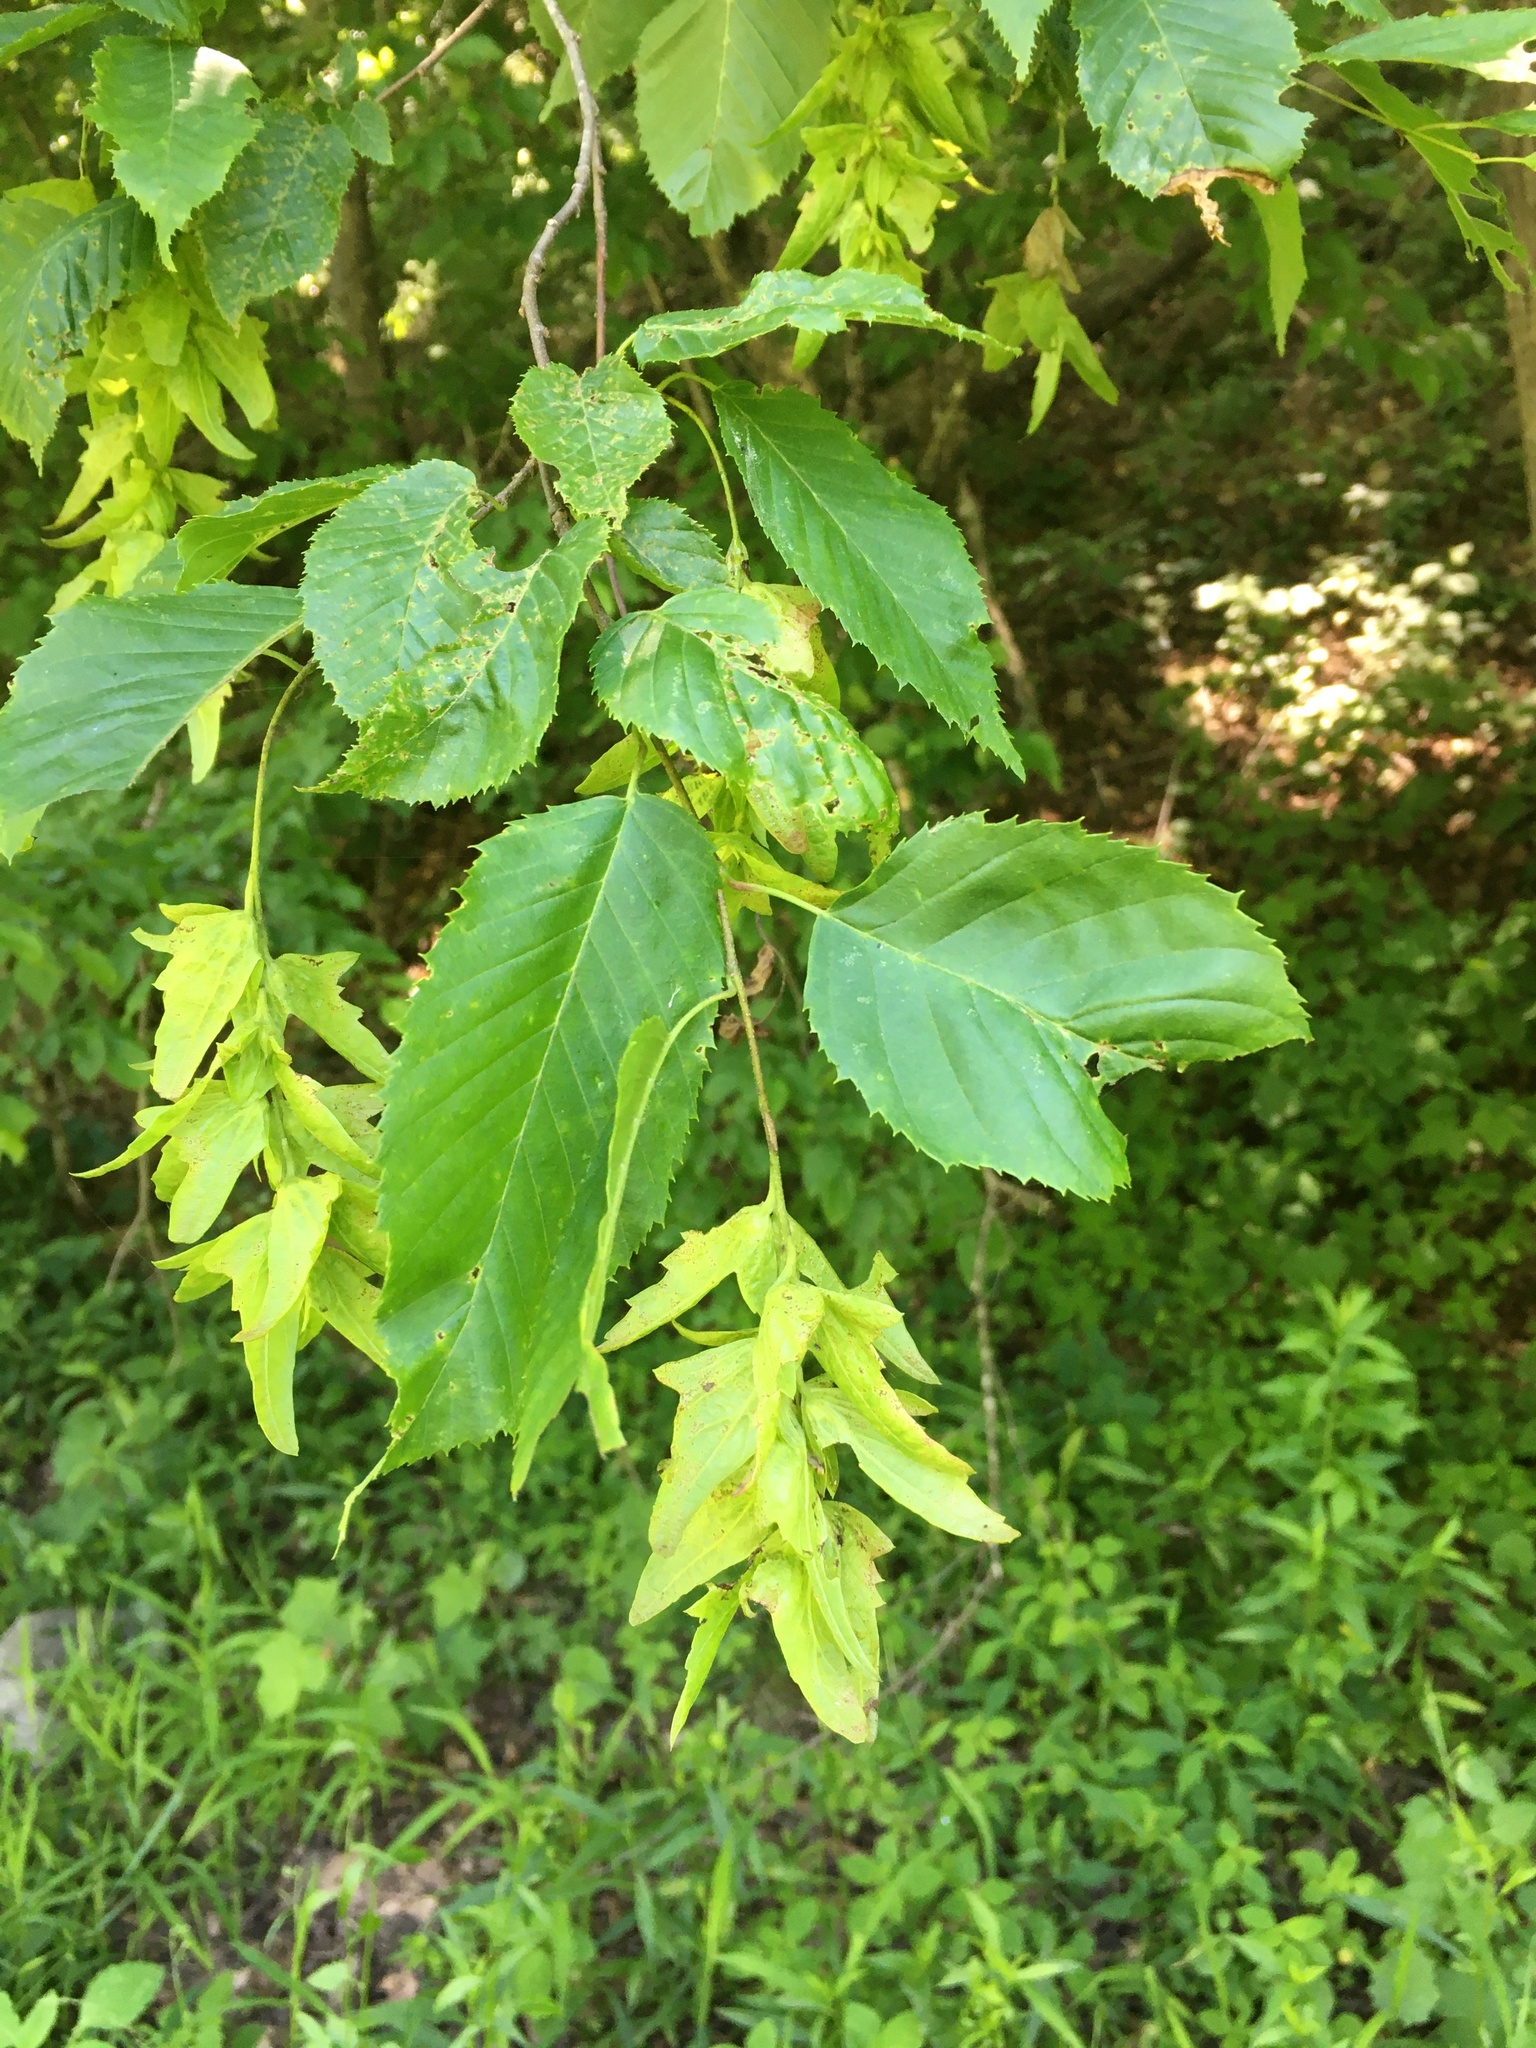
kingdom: Plantae
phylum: Tracheophyta
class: Magnoliopsida
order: Fagales
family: Betulaceae
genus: Carpinus
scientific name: Carpinus caroliniana
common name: American hornbeam
